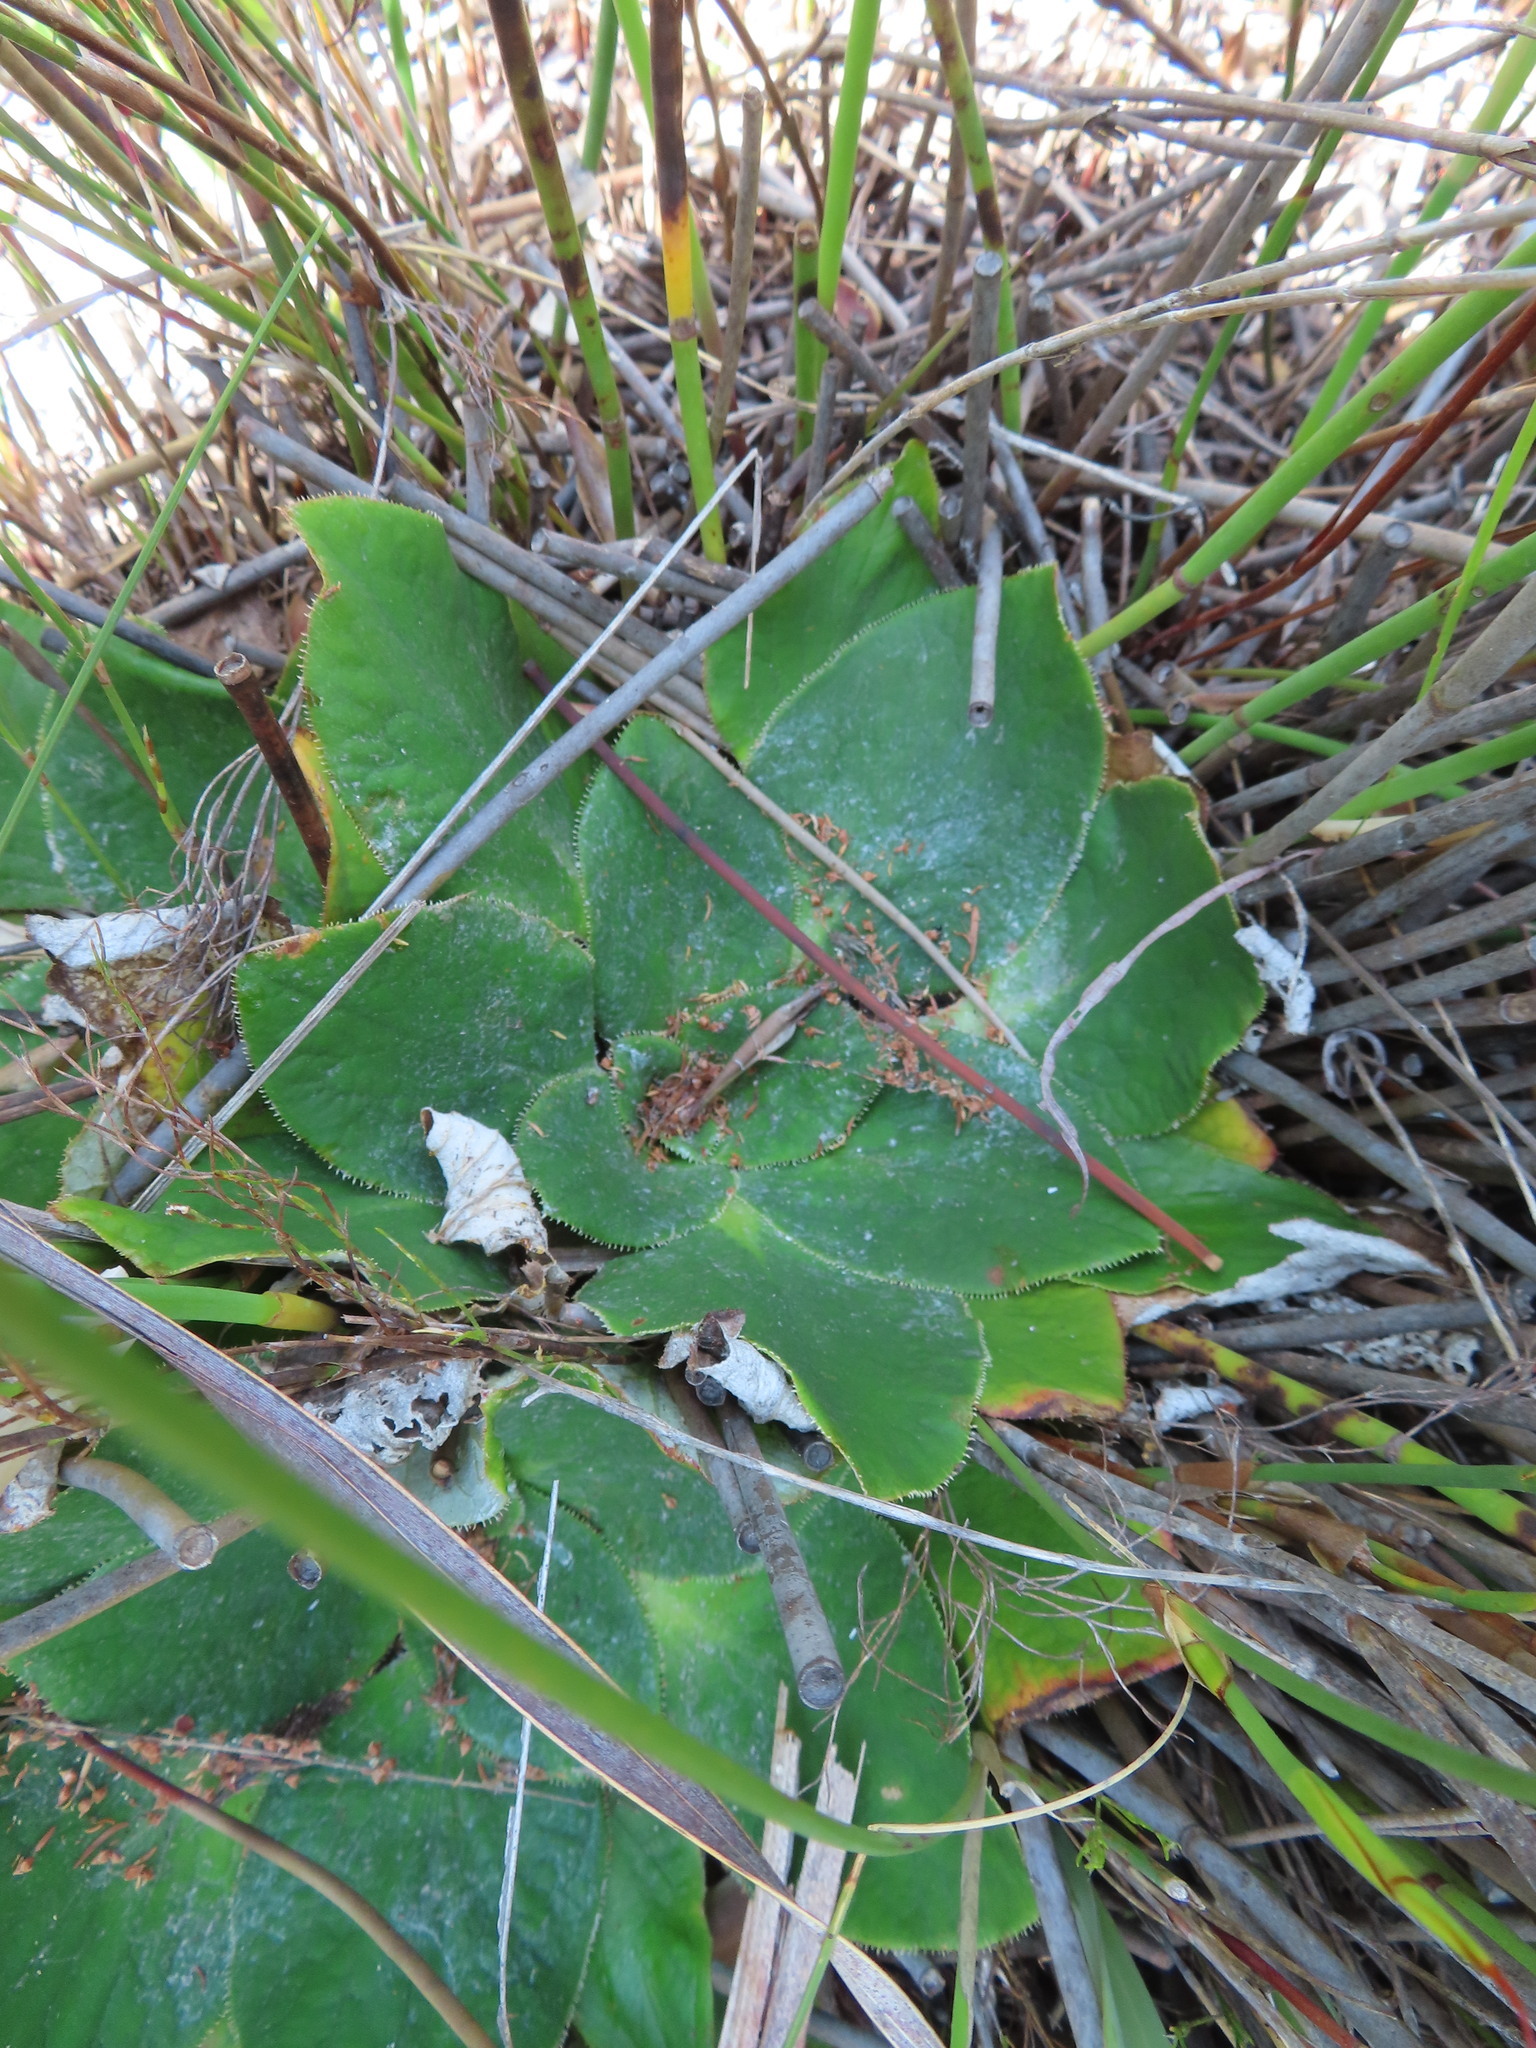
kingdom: Plantae
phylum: Tracheophyta
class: Magnoliopsida
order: Apiales
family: Apiaceae
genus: Hermas
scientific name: Hermas ciliata
